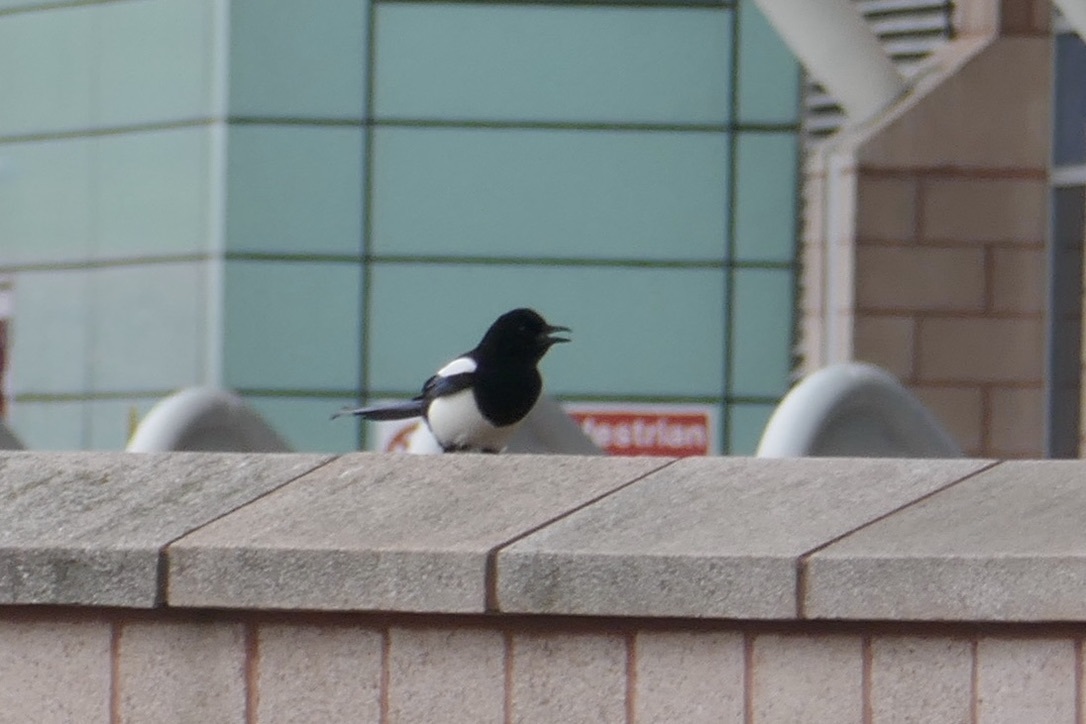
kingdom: Animalia
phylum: Chordata
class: Aves
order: Passeriformes
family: Corvidae
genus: Pica
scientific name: Pica pica
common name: Eurasian magpie
